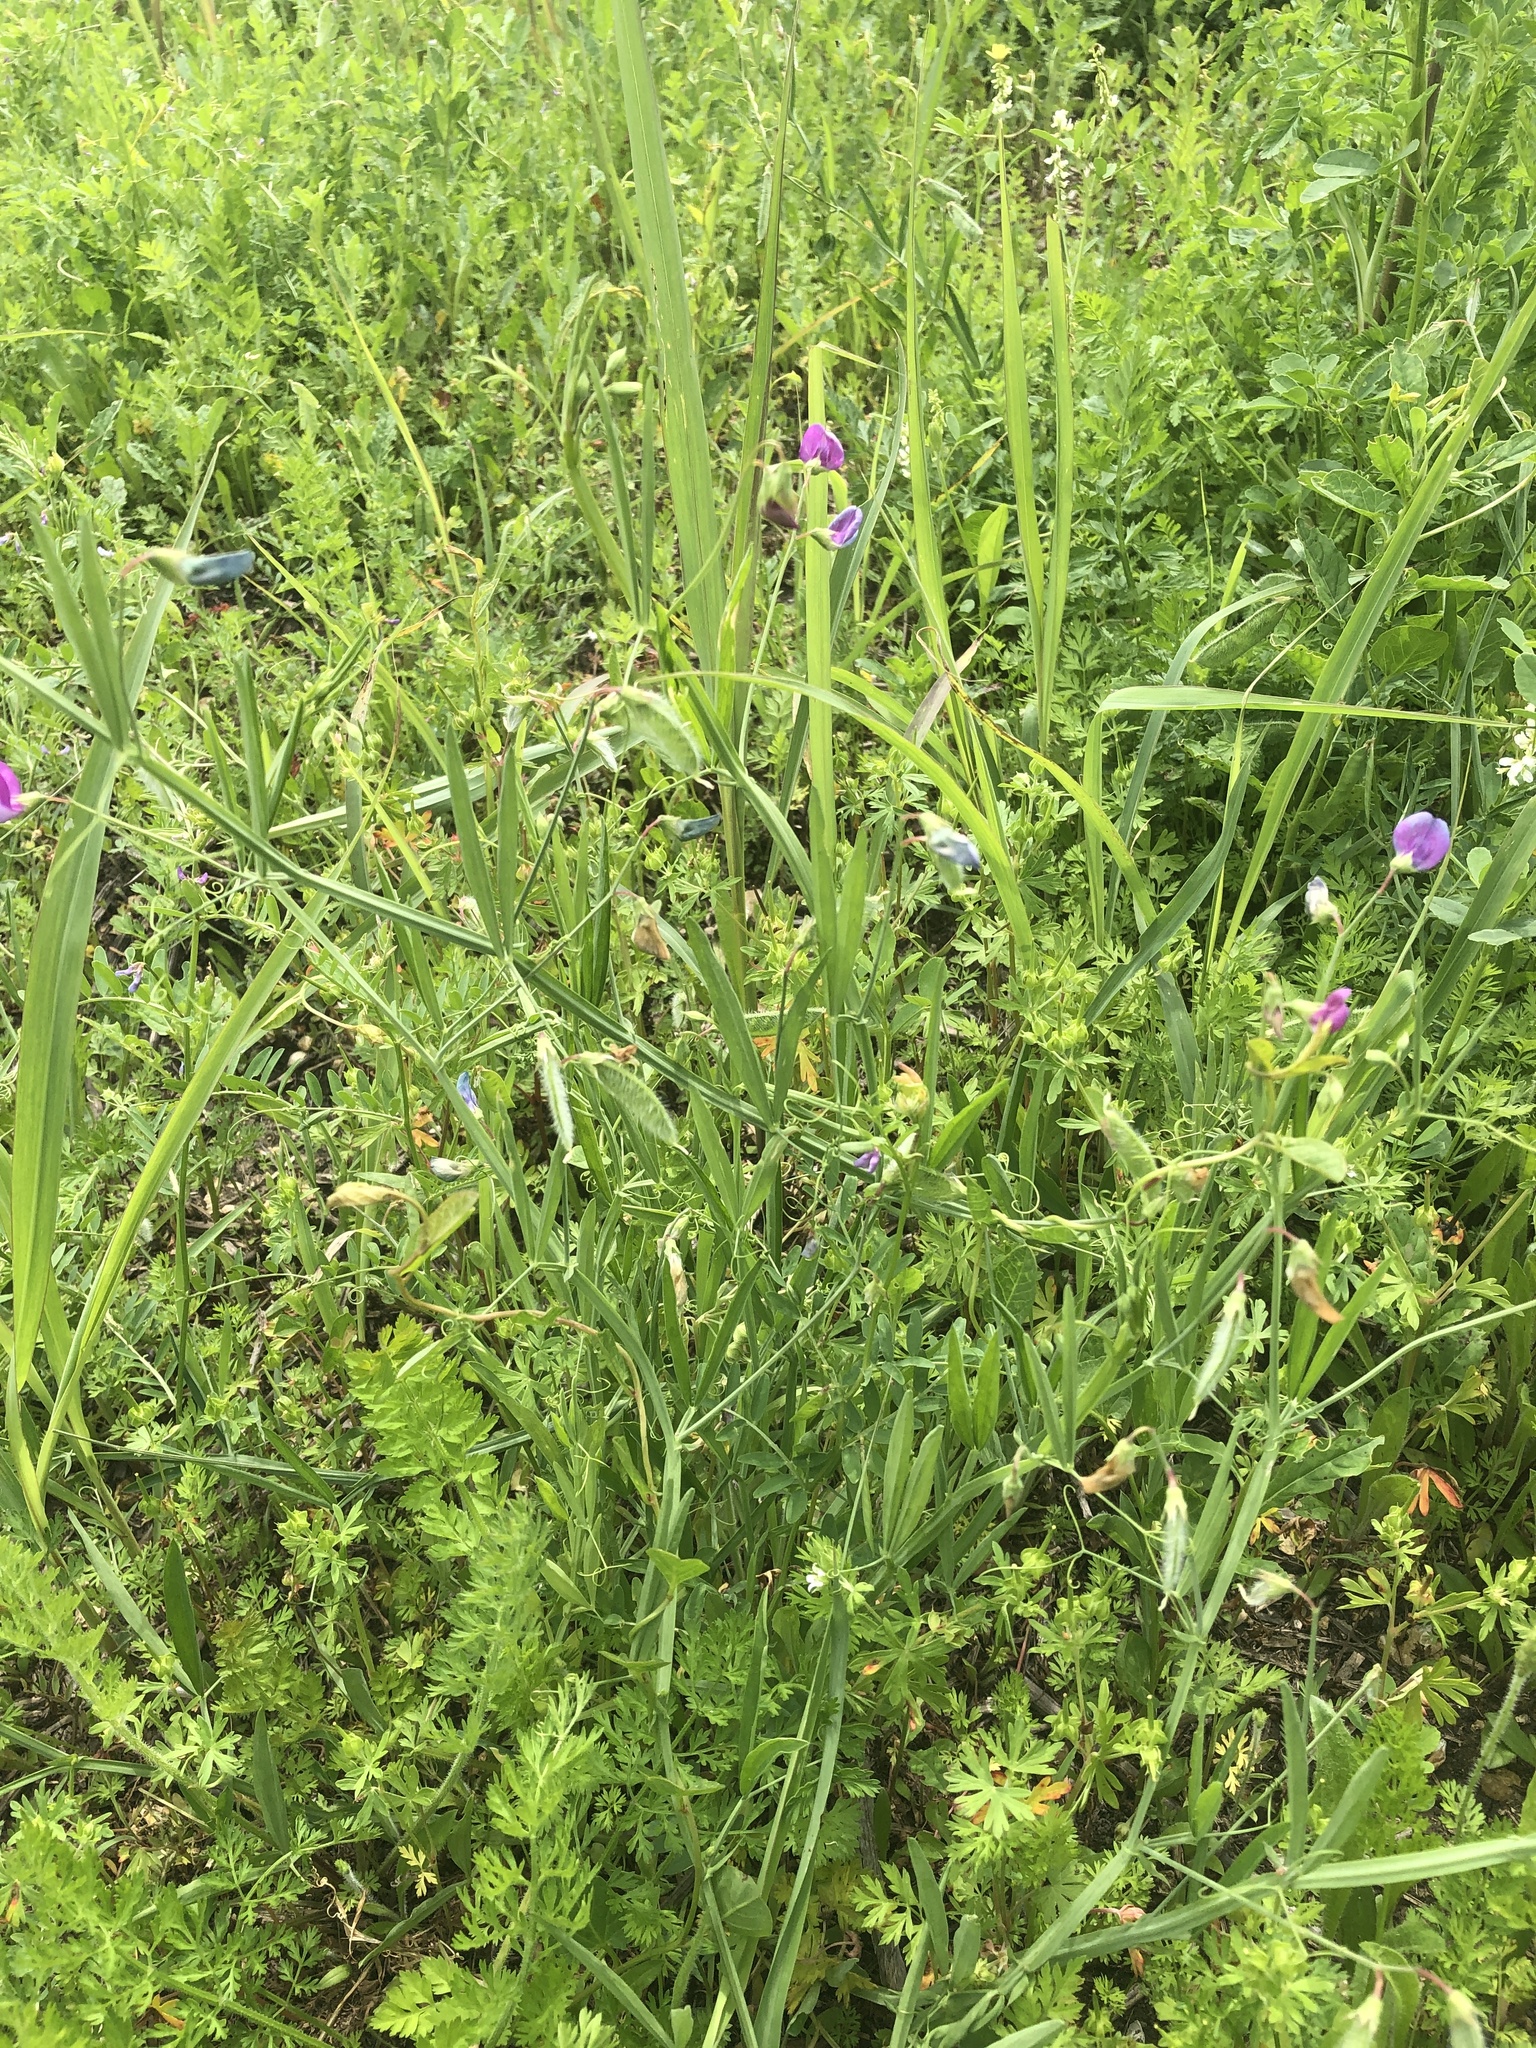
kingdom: Plantae
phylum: Tracheophyta
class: Magnoliopsida
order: Fabales
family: Fabaceae
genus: Lathyrus
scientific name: Lathyrus hirsutus
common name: Hairy vetchling
